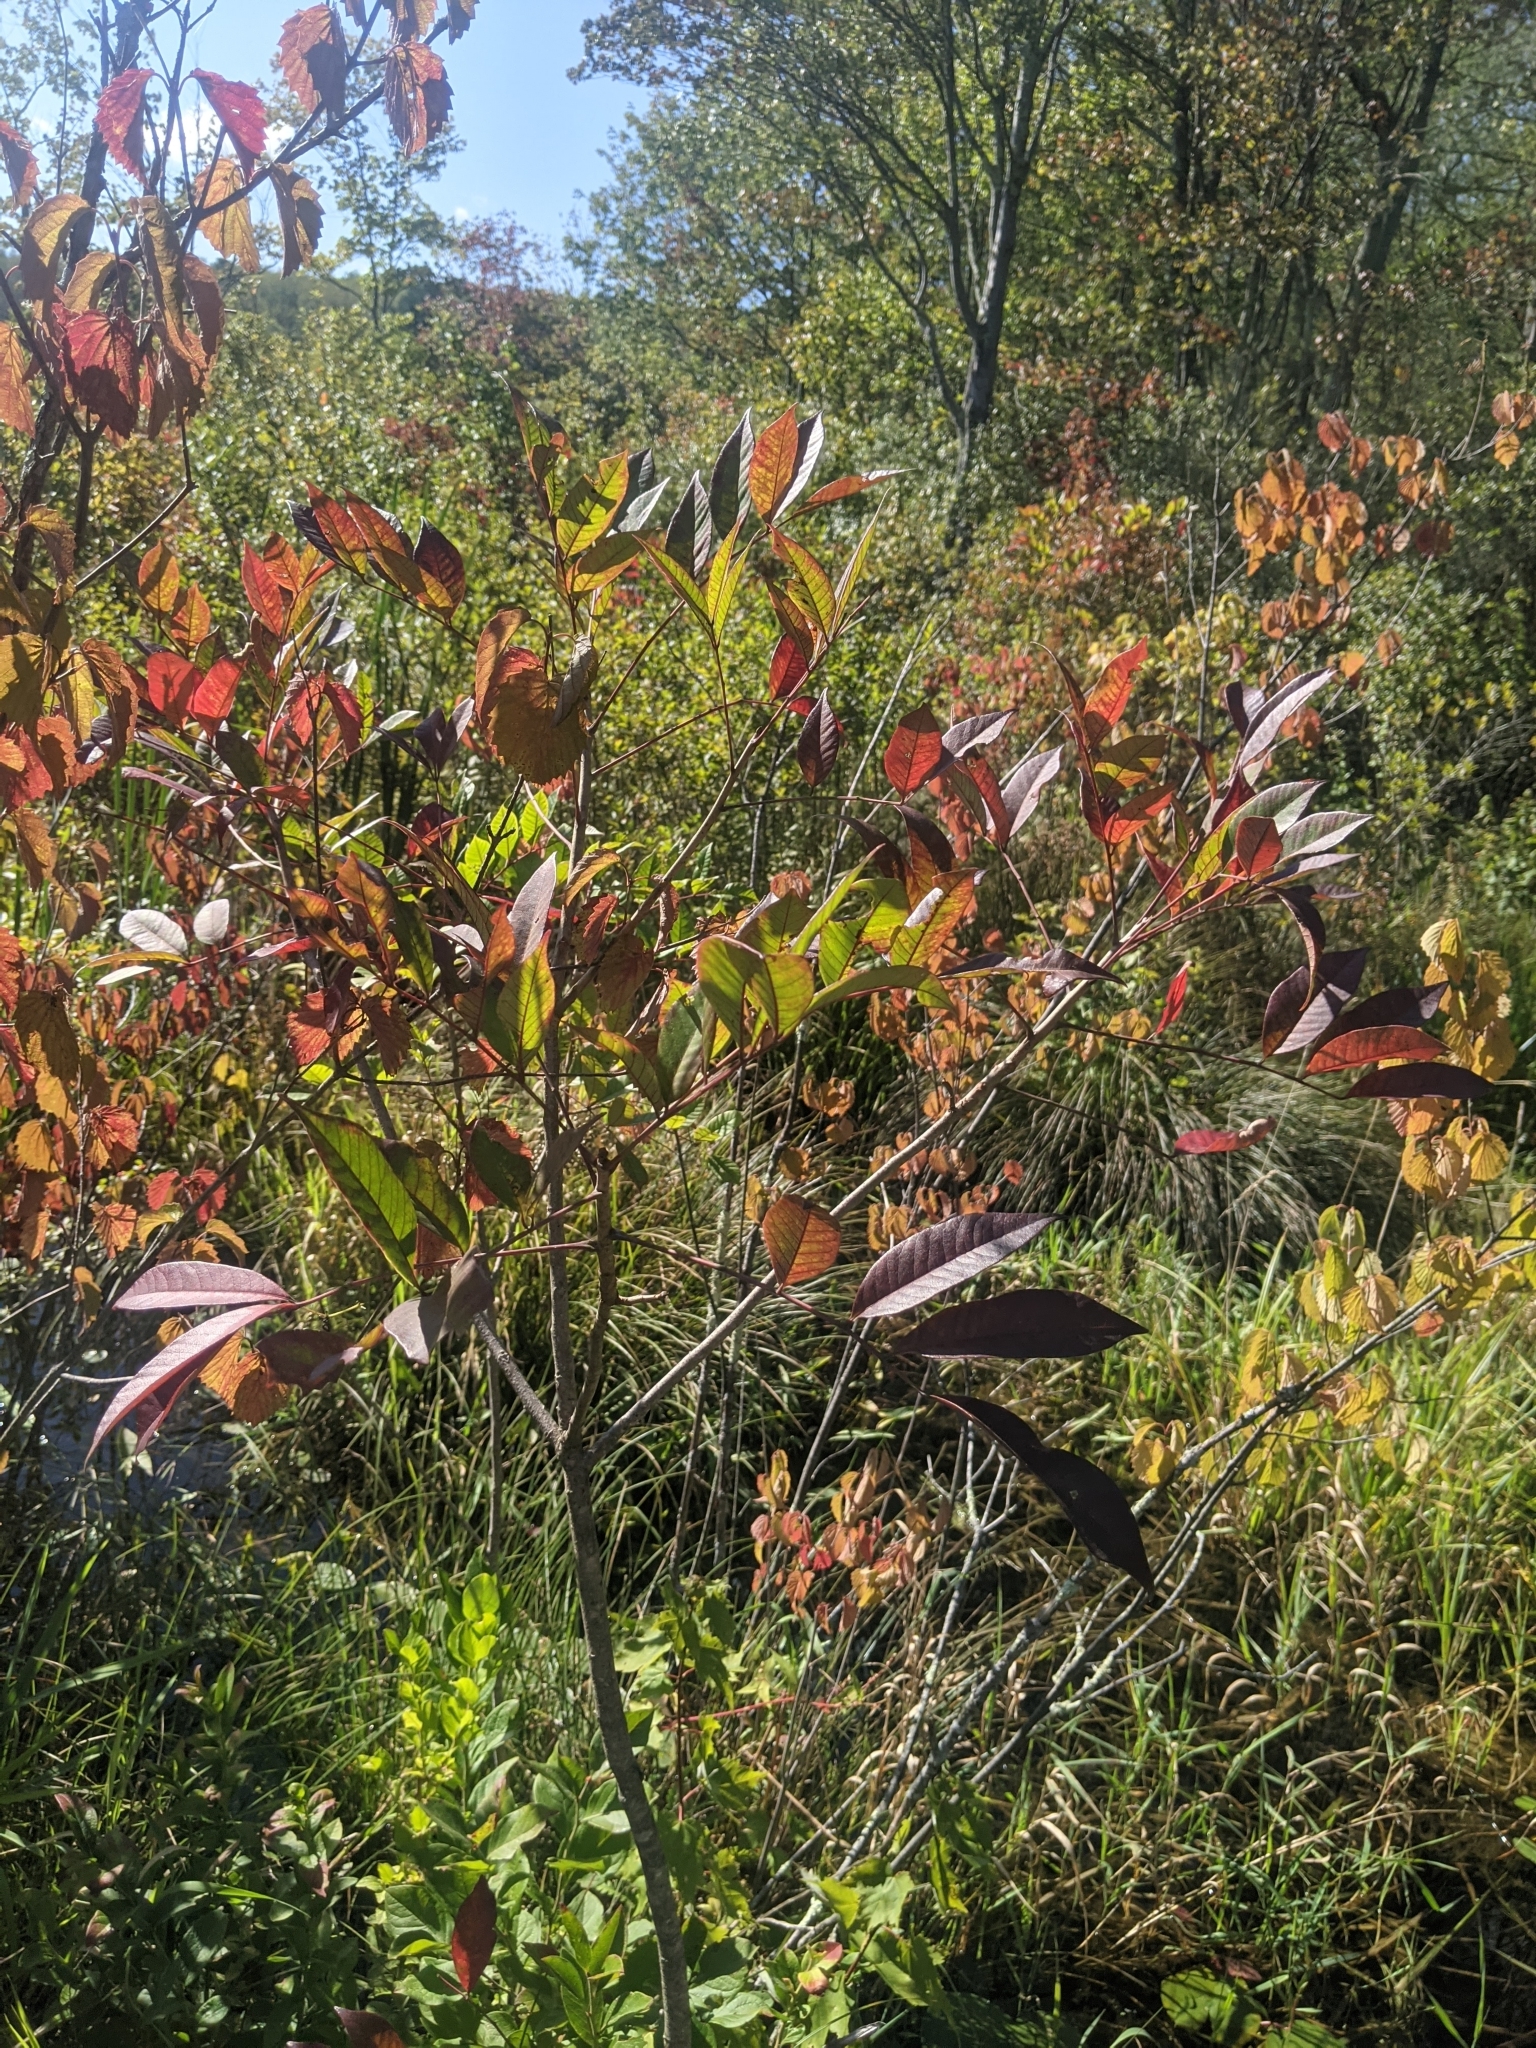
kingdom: Plantae
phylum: Tracheophyta
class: Magnoliopsida
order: Sapindales
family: Anacardiaceae
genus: Toxicodendron
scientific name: Toxicodendron vernix
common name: Poison sumac
